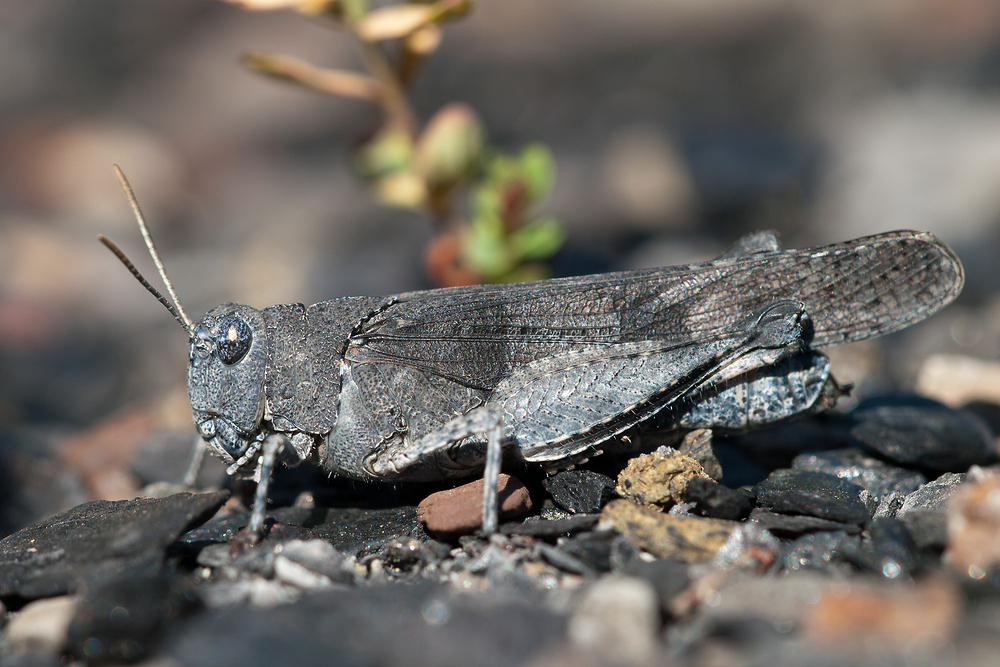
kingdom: Animalia
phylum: Arthropoda
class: Insecta
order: Orthoptera
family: Acrididae
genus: Oedipoda
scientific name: Oedipoda caerulescens
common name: Blue-winged grasshopper
